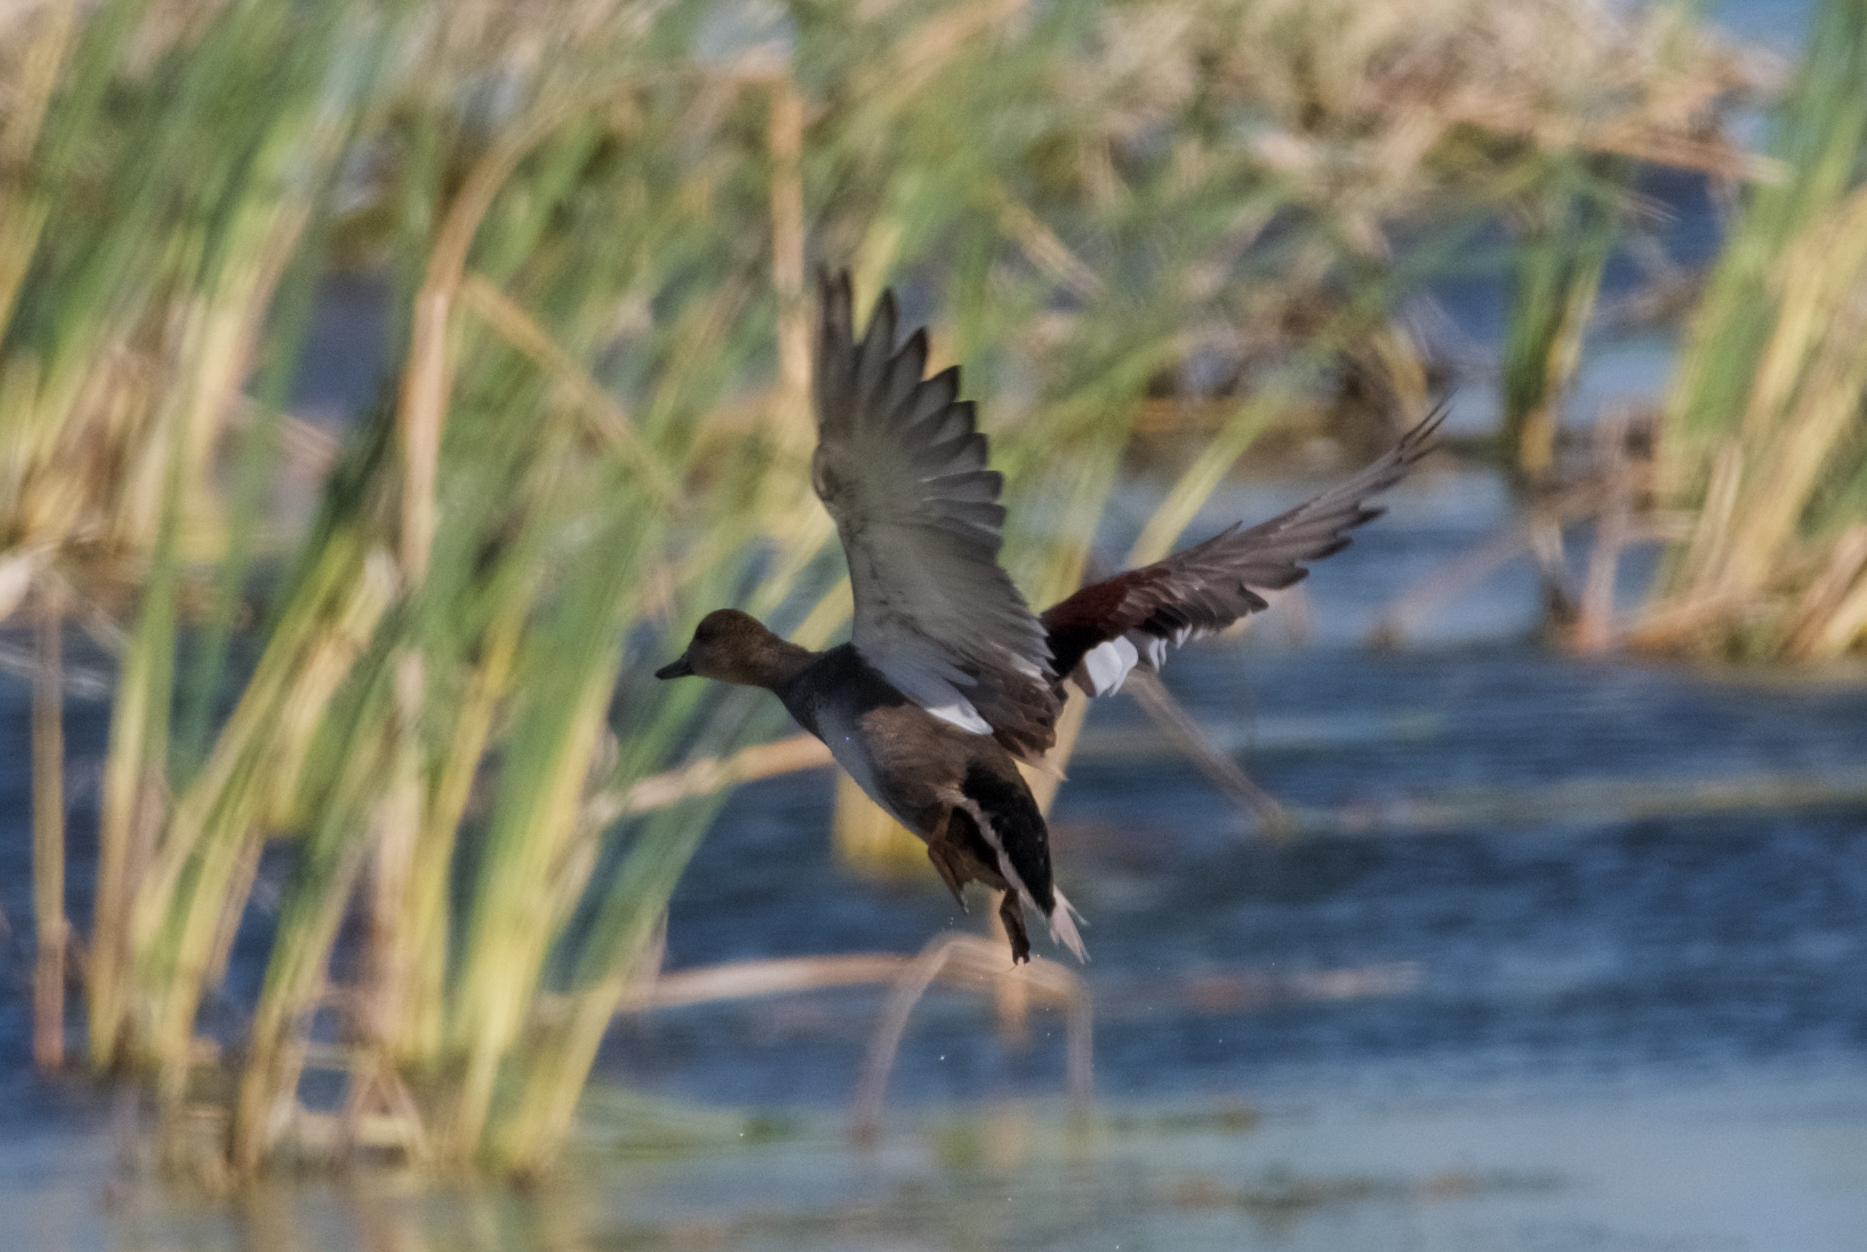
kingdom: Animalia
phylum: Chordata
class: Aves
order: Anseriformes
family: Anatidae
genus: Mareca
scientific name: Mareca strepera
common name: Gadwall
